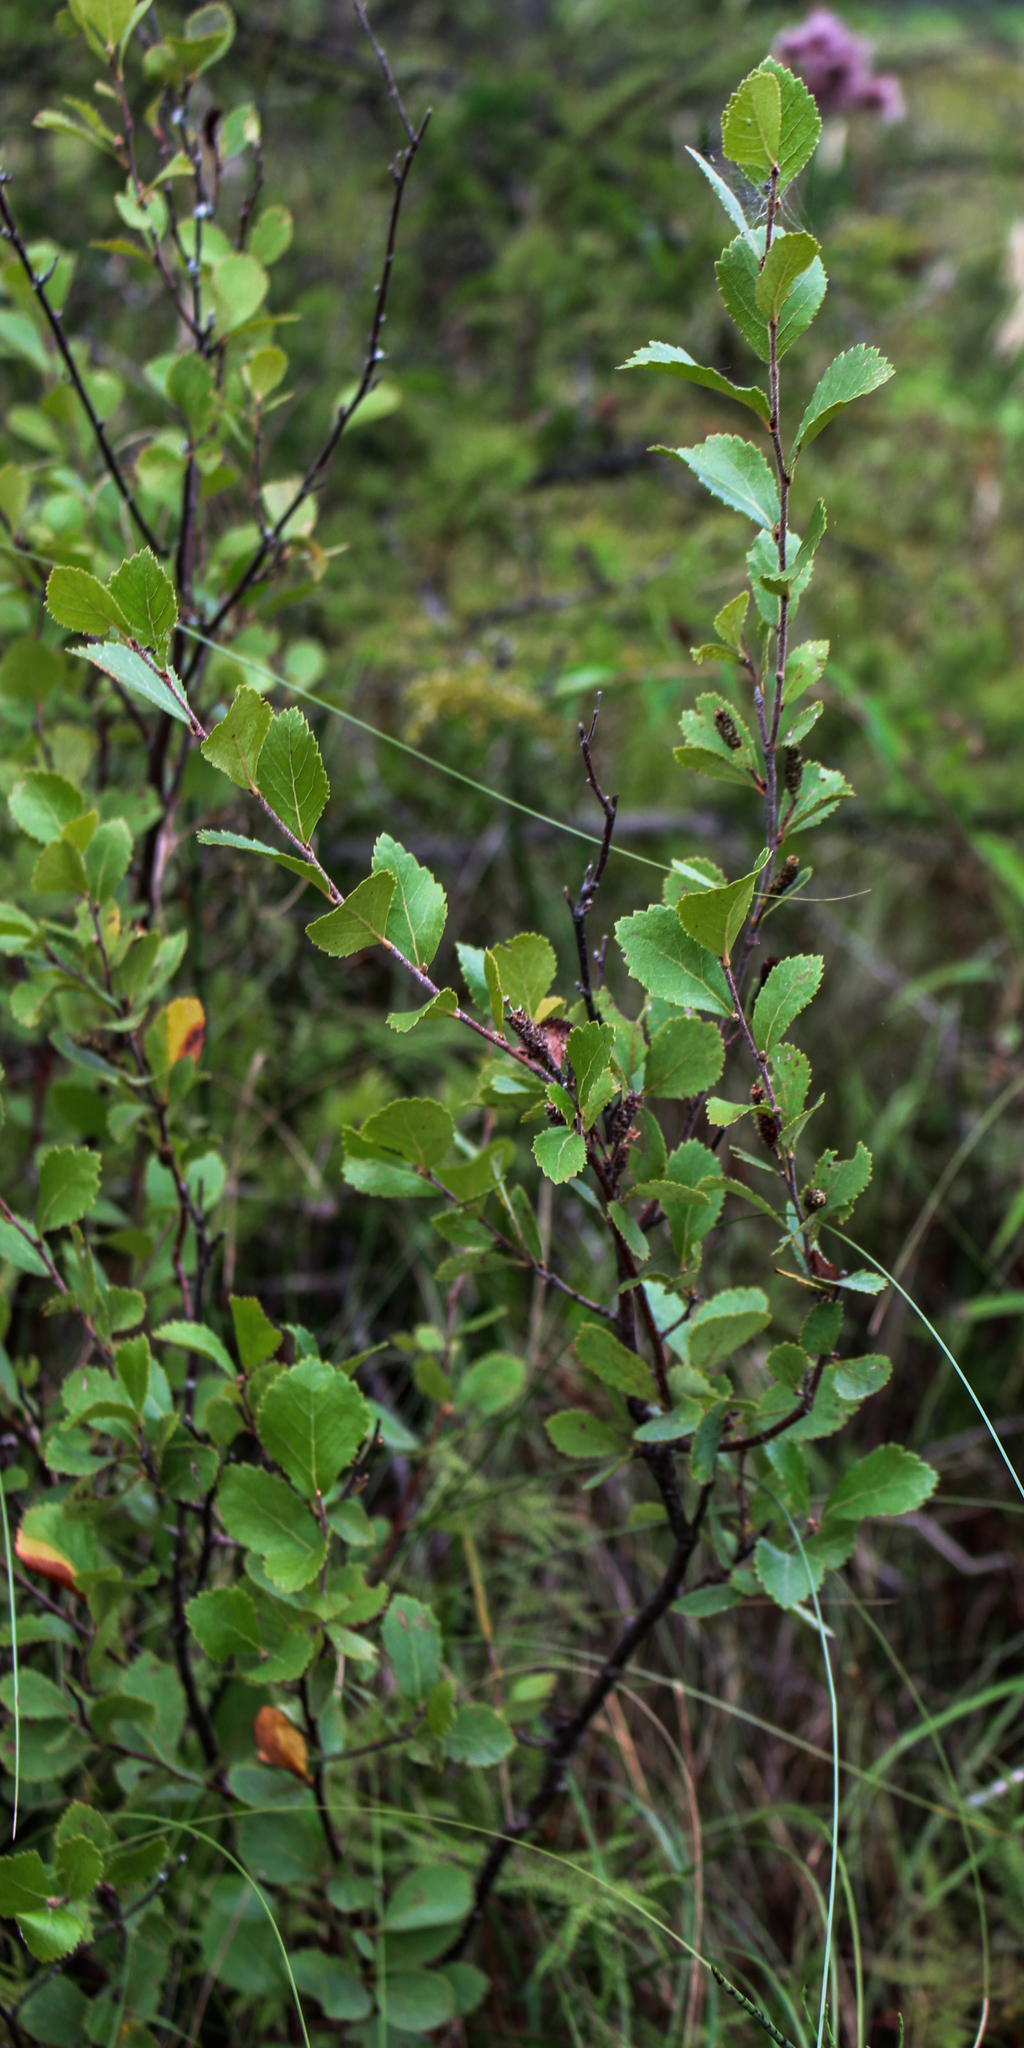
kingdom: Plantae
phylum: Tracheophyta
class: Magnoliopsida
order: Fagales
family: Betulaceae
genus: Betula
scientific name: Betula pumila
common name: Bog birch
